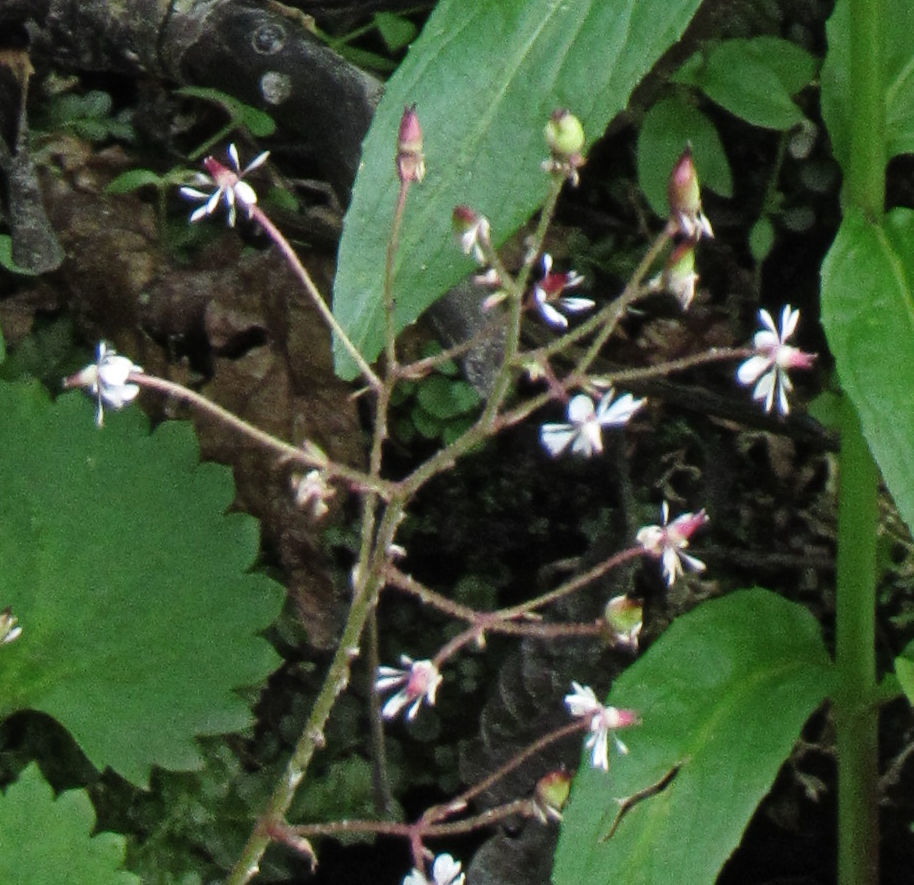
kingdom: Plantae
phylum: Tracheophyta
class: Magnoliopsida
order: Saxifragales
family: Saxifragaceae
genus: Micranthes
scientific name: Micranthes odontoloma
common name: Brook saxifrage
